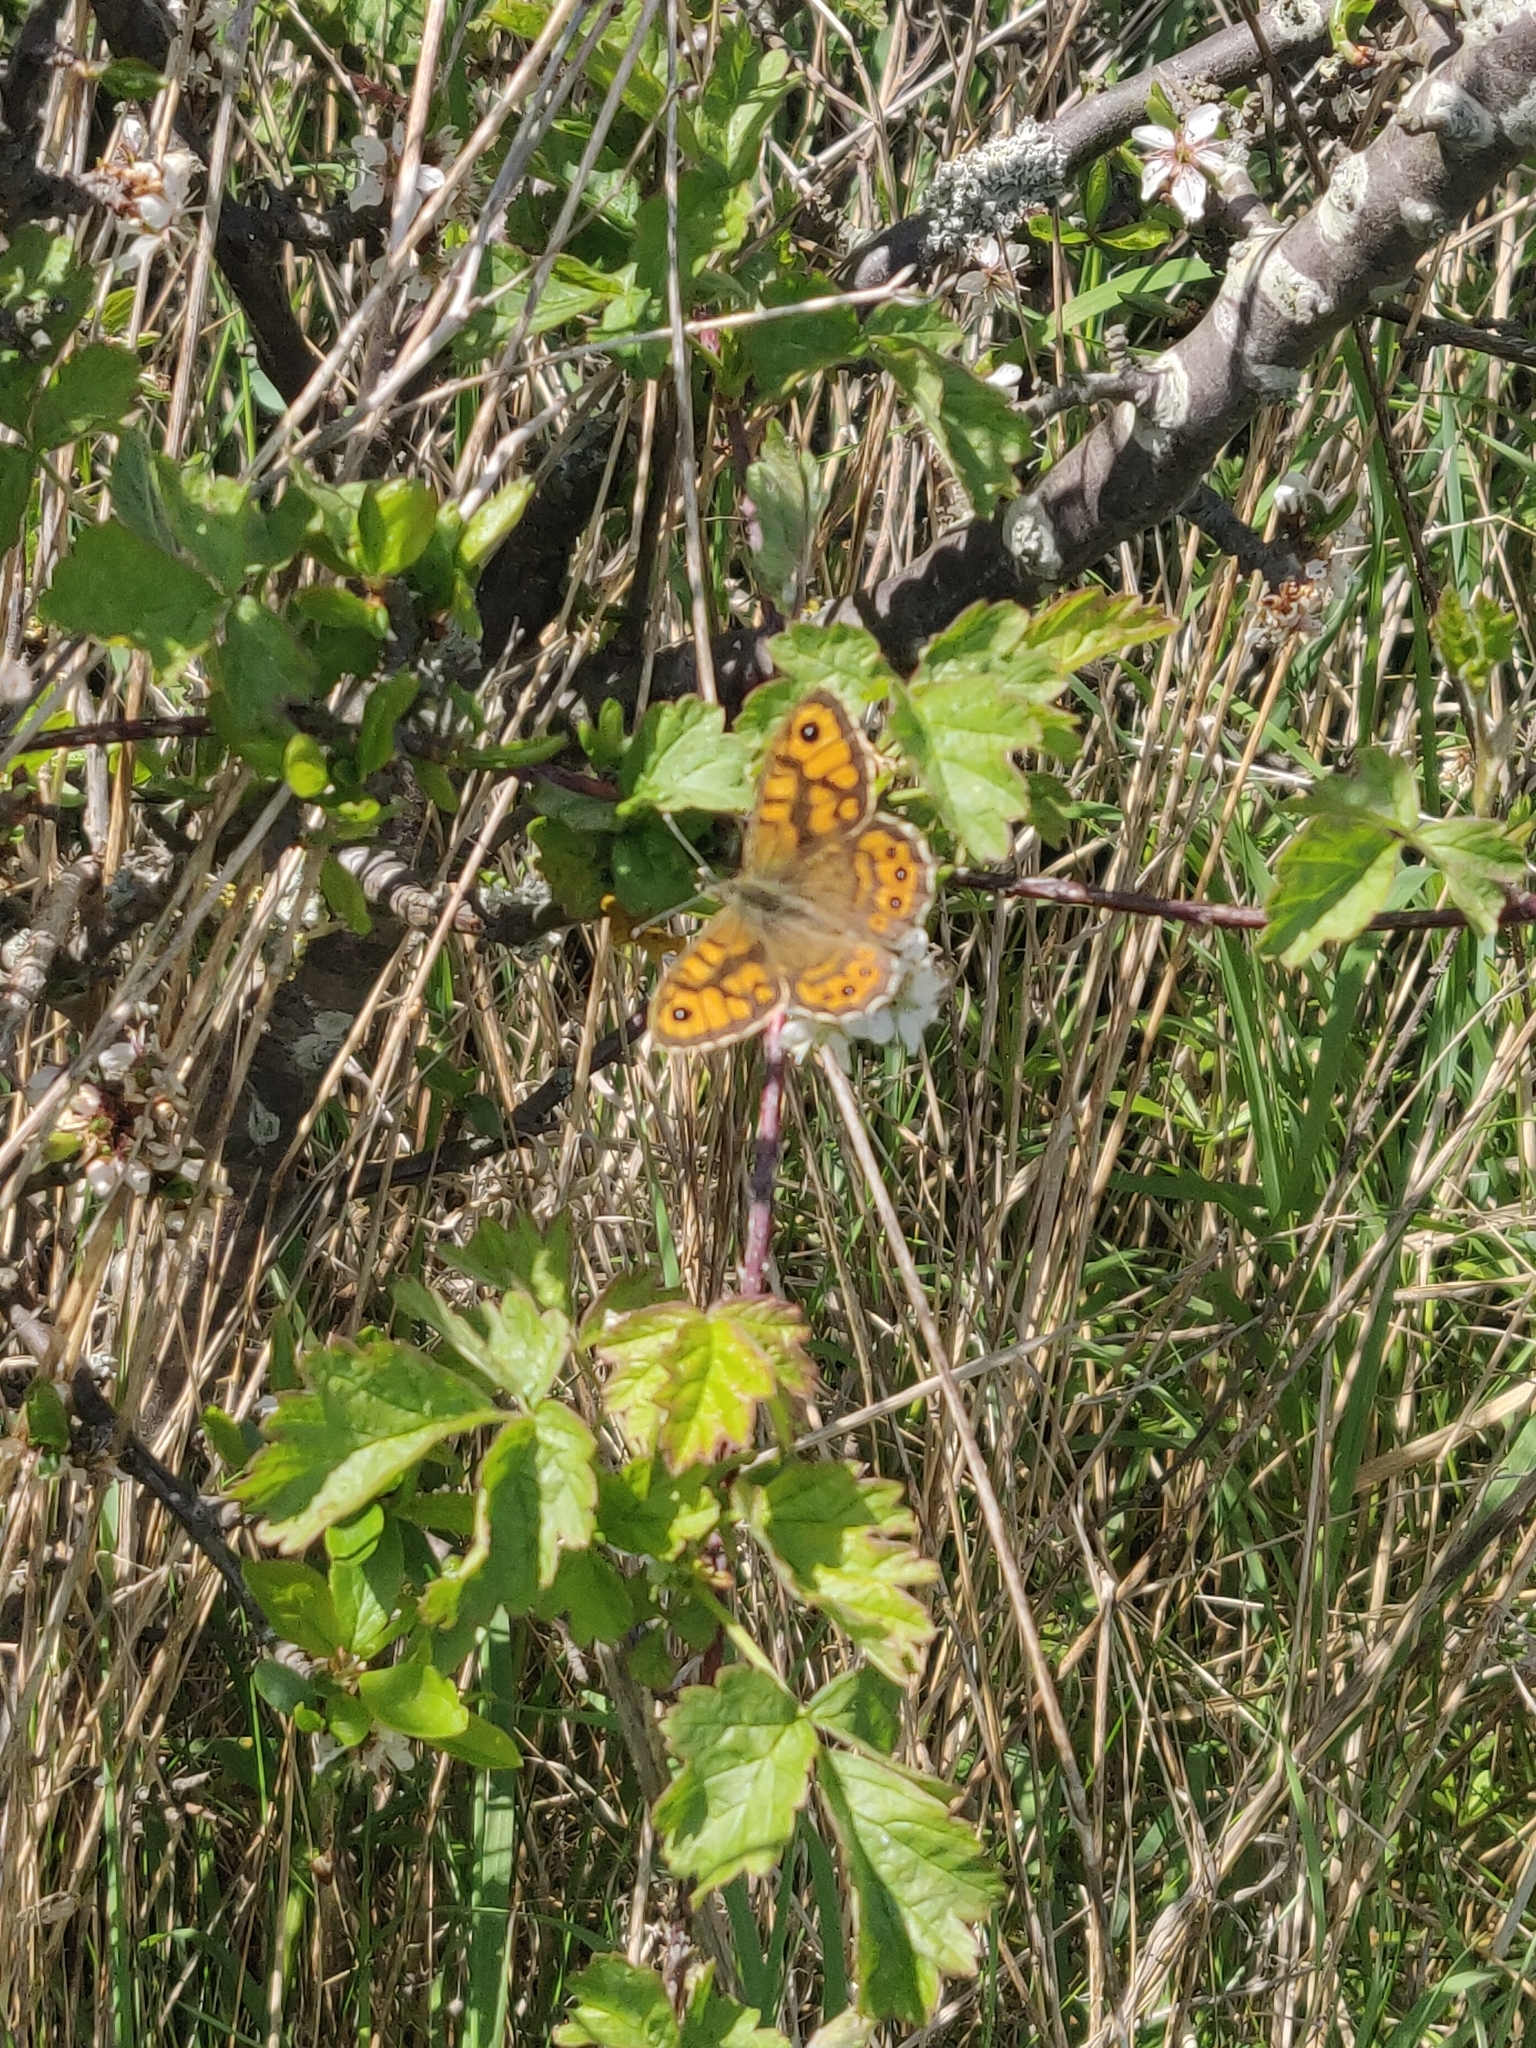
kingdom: Animalia
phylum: Arthropoda
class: Insecta
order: Lepidoptera
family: Nymphalidae
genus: Pararge
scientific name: Pararge Lasiommata megera
